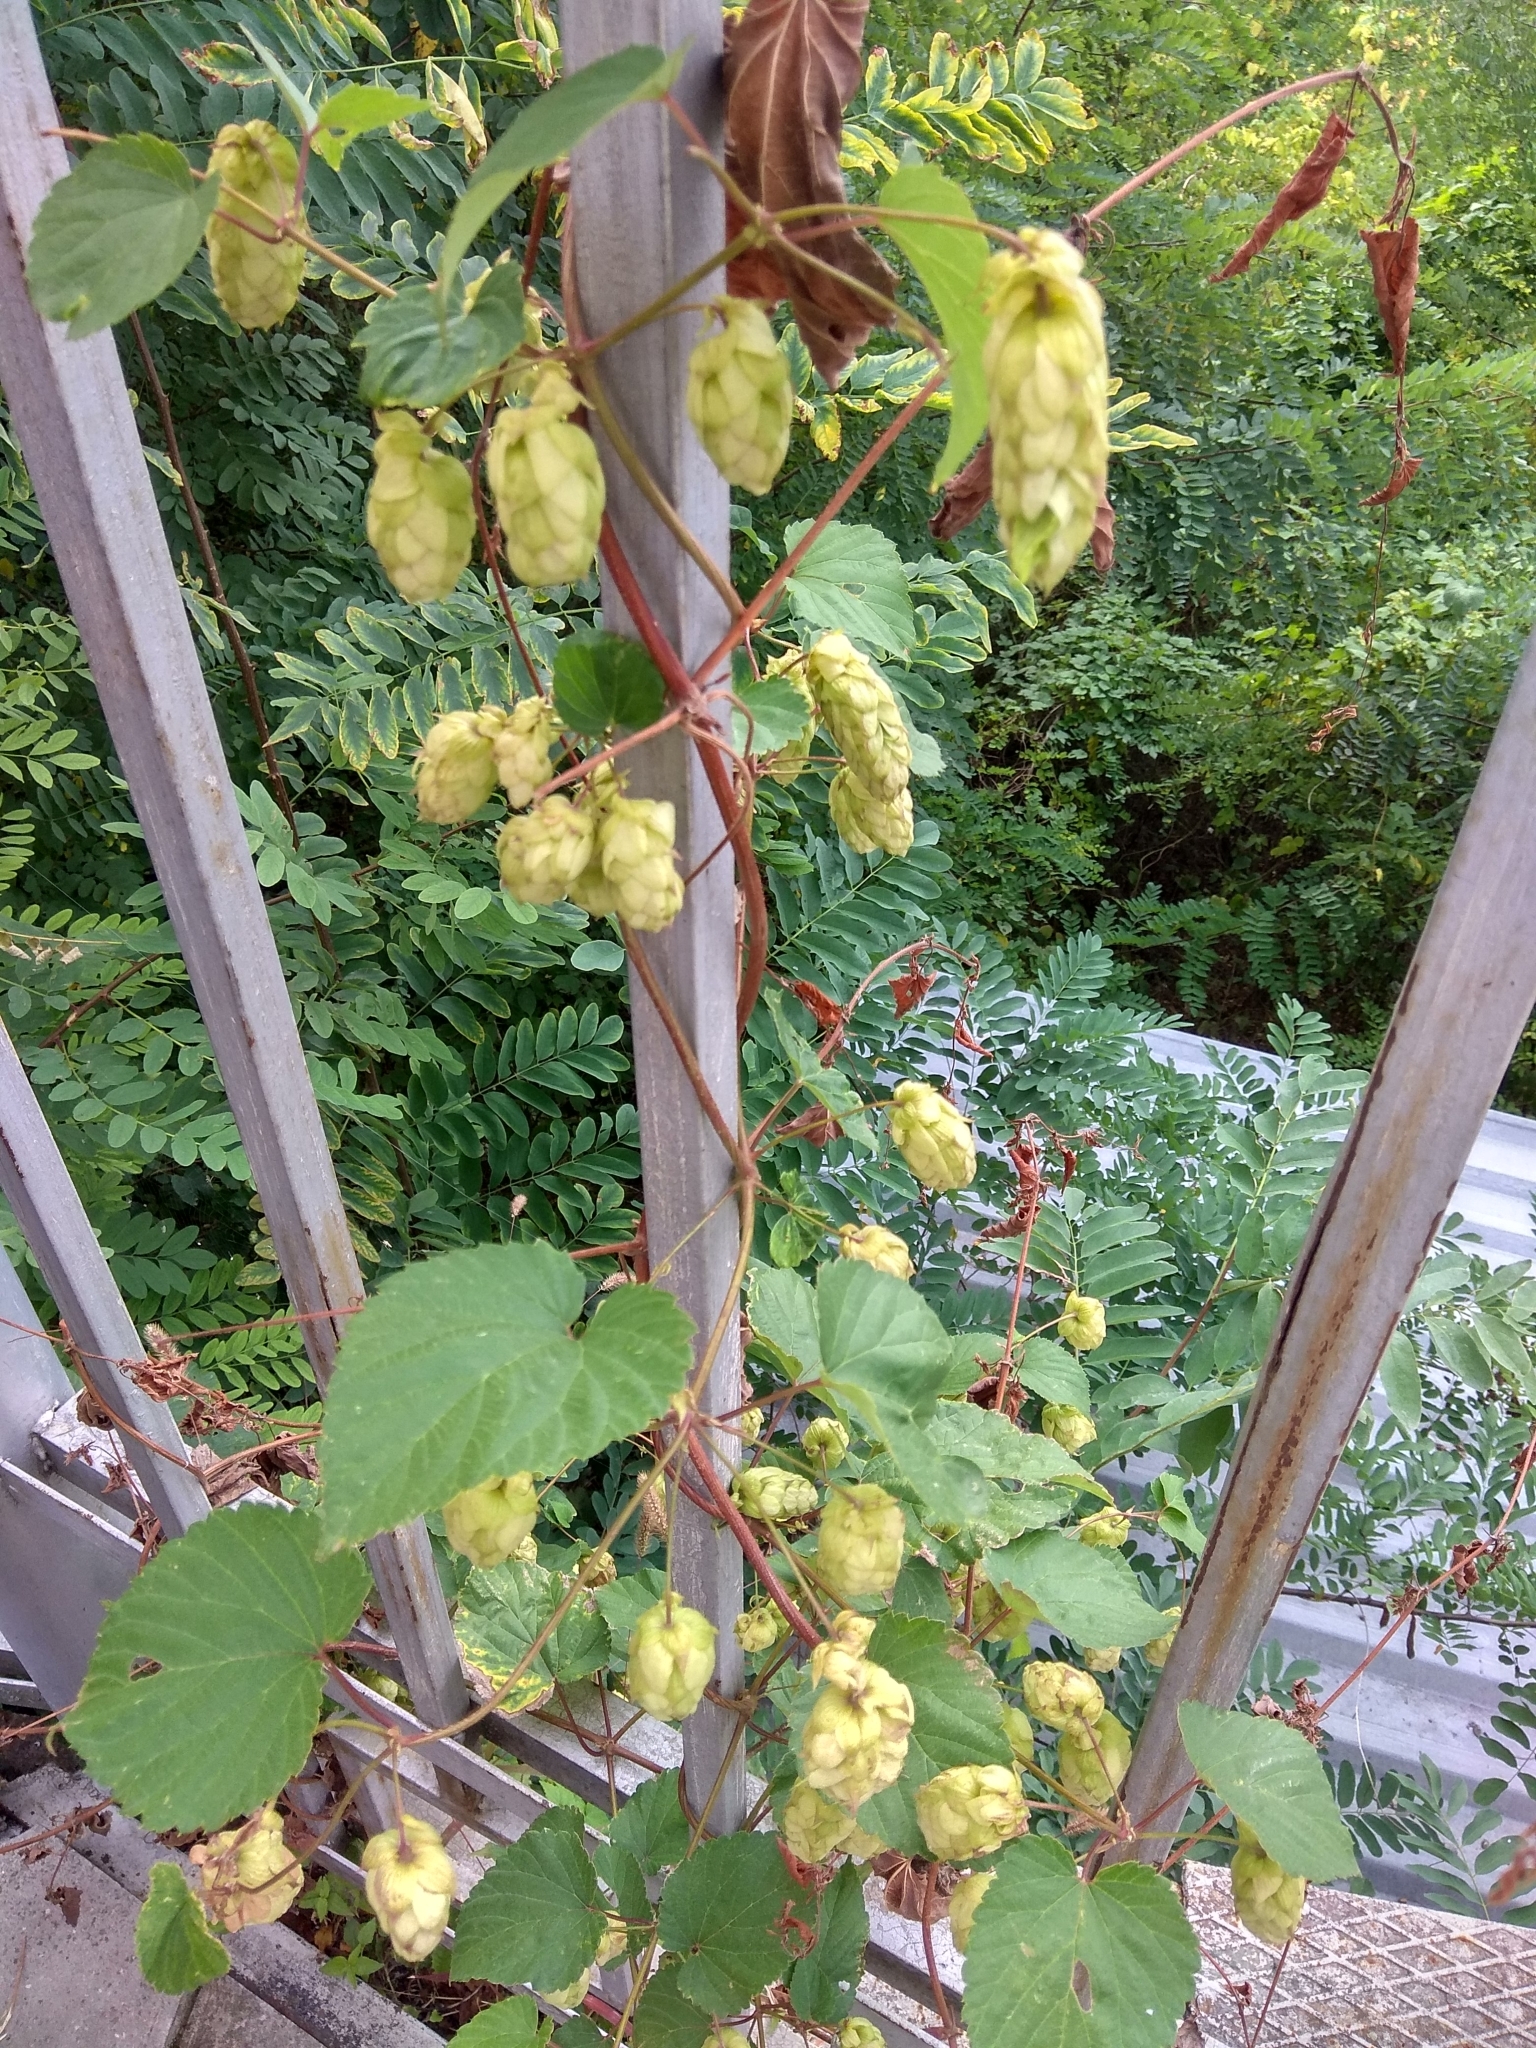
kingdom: Plantae
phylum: Tracheophyta
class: Magnoliopsida
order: Rosales
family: Cannabaceae
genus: Humulus
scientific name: Humulus lupulus
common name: Hop
